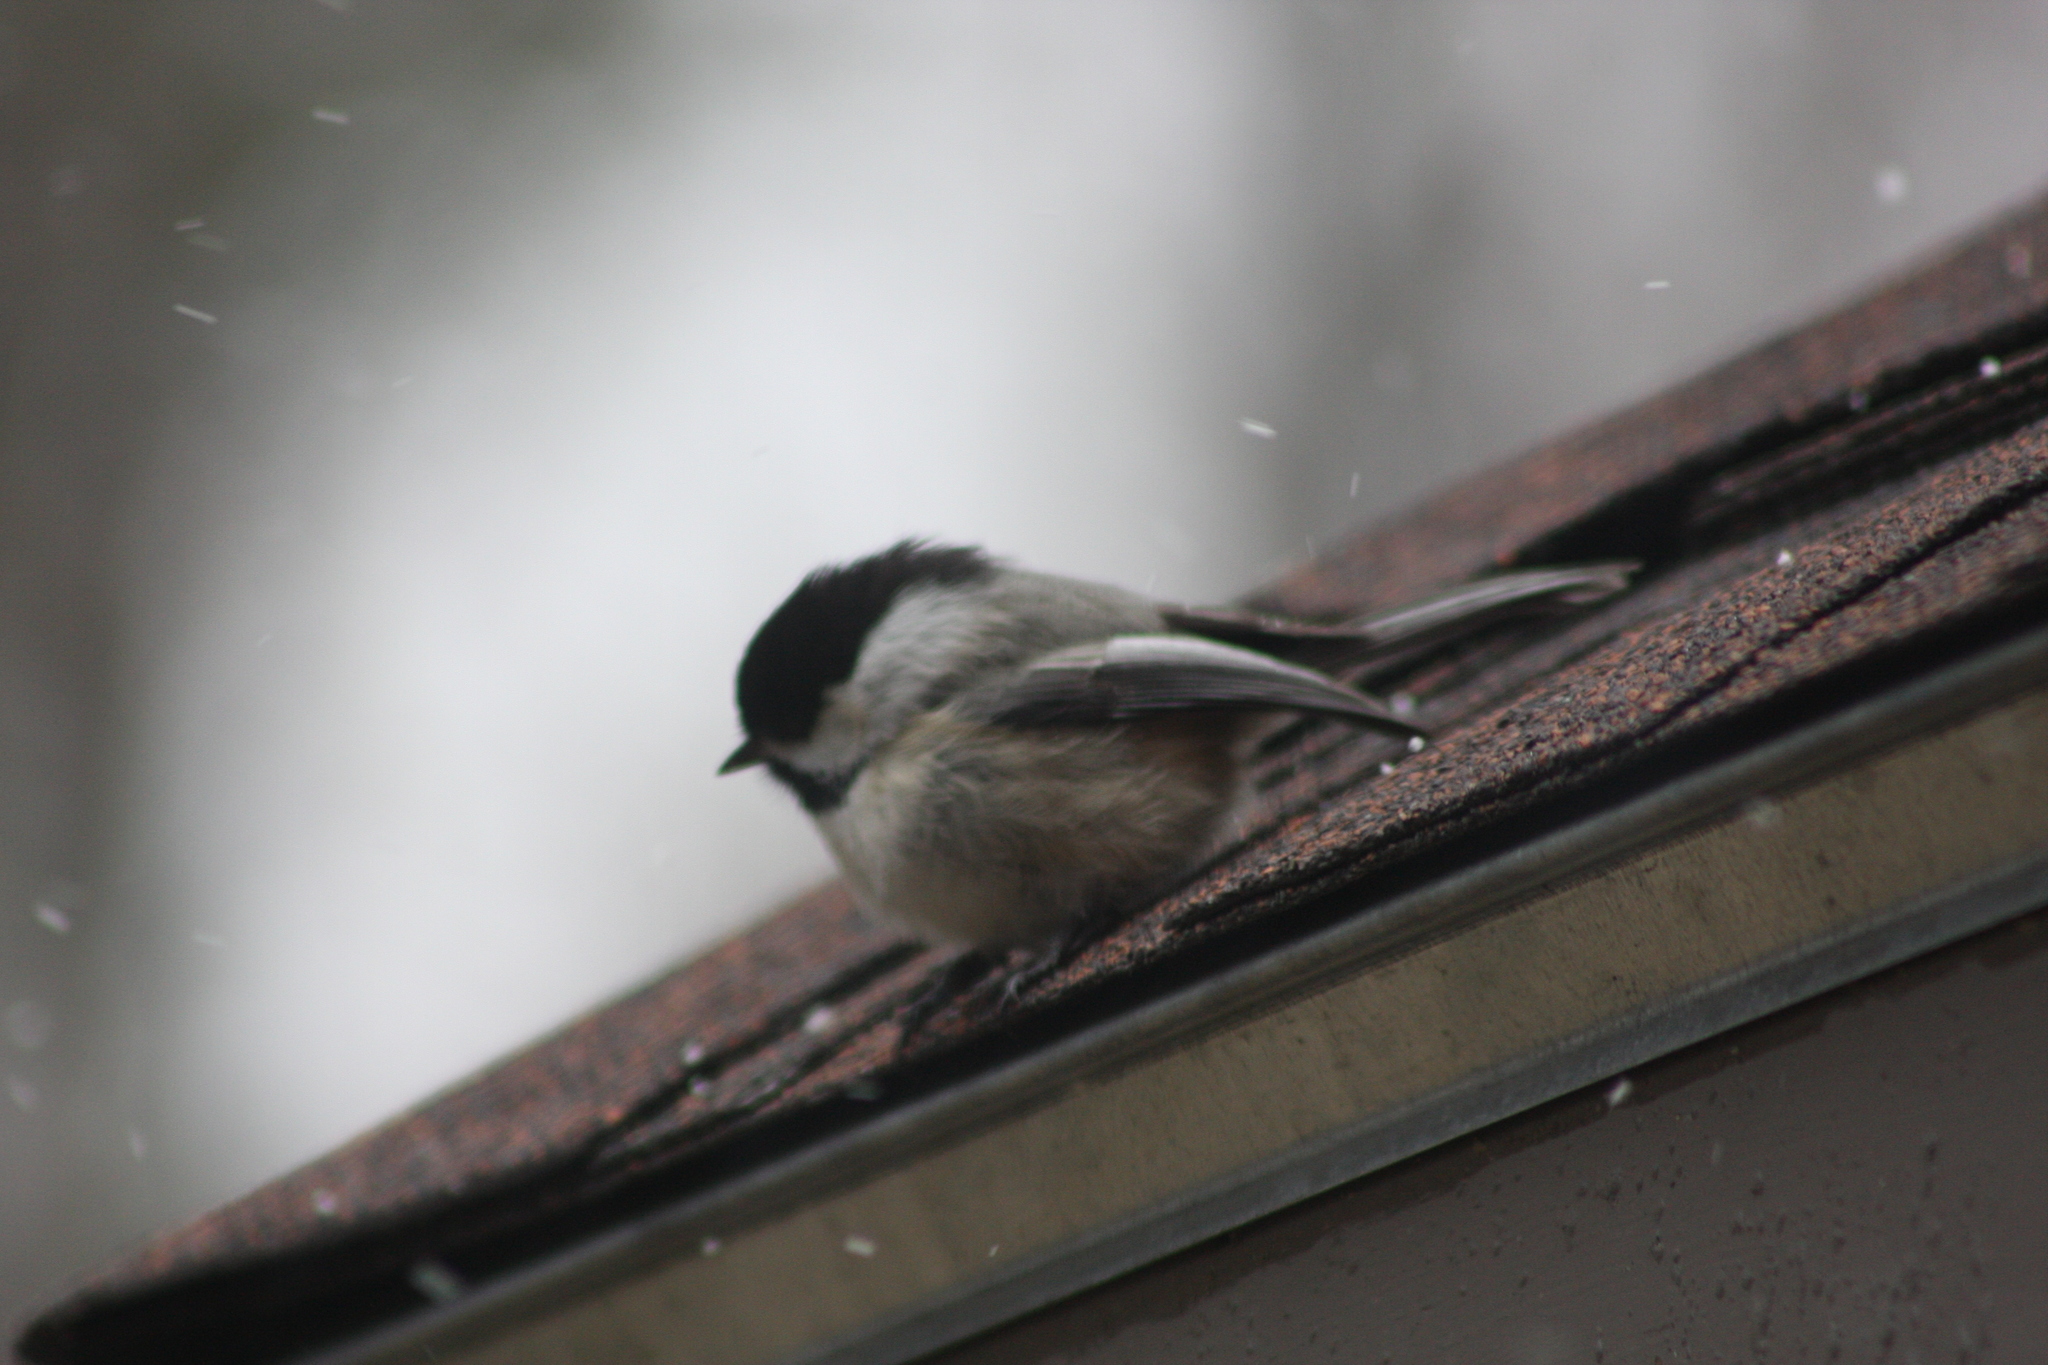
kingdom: Animalia
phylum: Chordata
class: Aves
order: Passeriformes
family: Paridae
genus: Poecile
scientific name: Poecile atricapillus
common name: Black-capped chickadee
